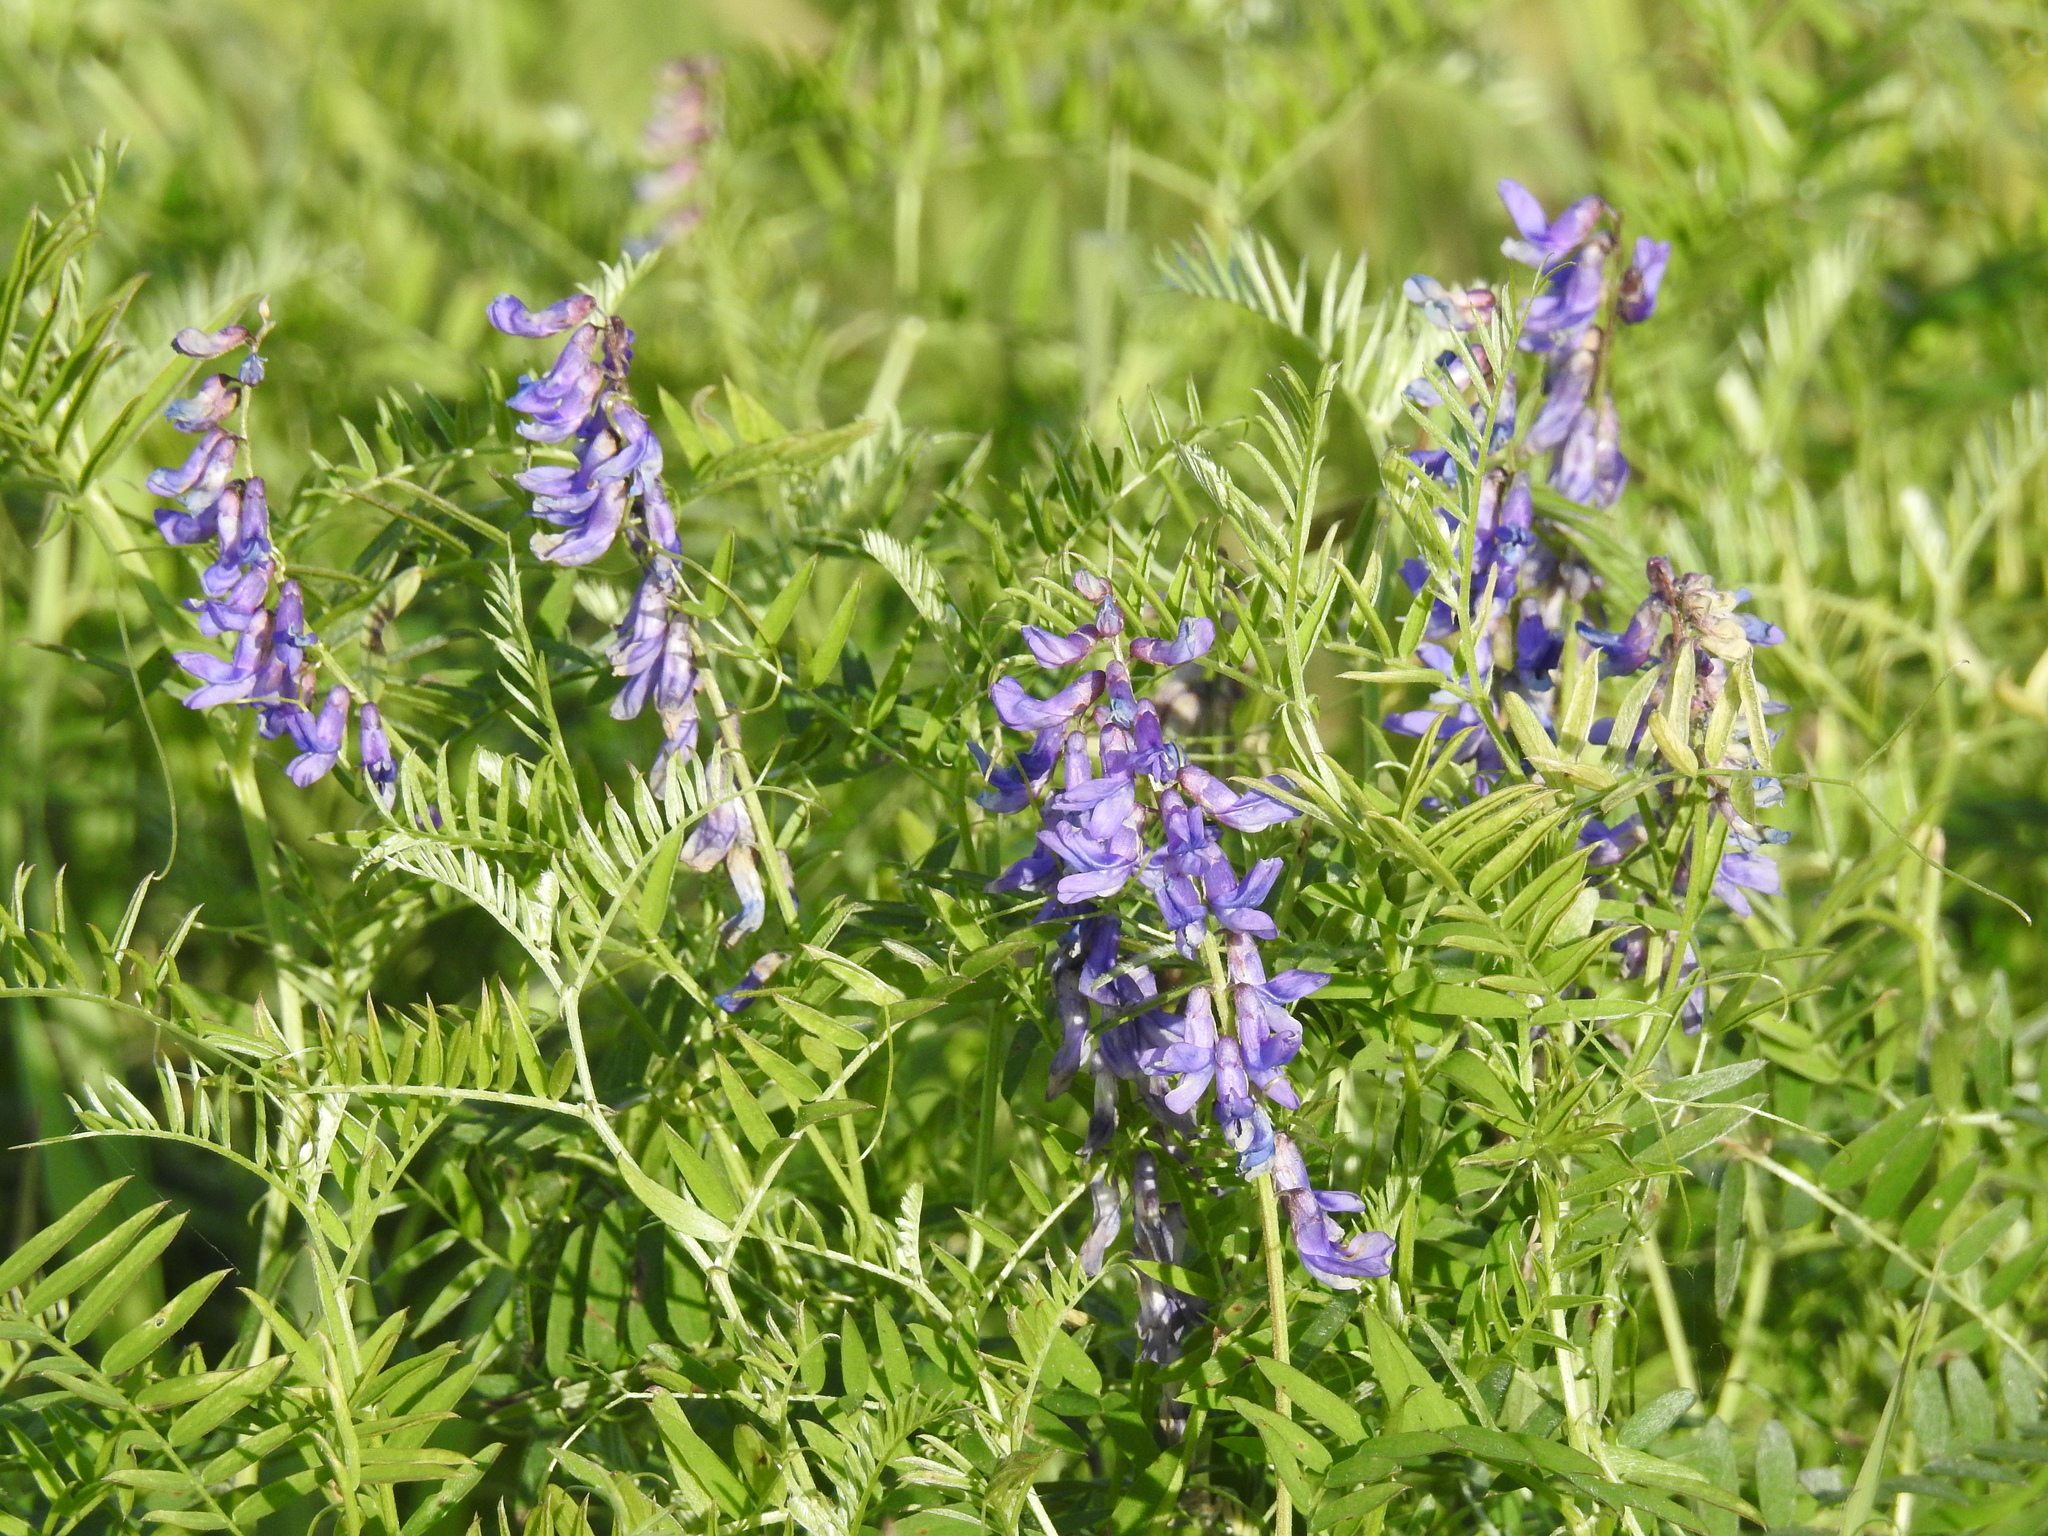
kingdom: Plantae
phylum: Tracheophyta
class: Magnoliopsida
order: Fabales
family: Fabaceae
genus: Vicia
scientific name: Vicia cracca
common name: Bird vetch
